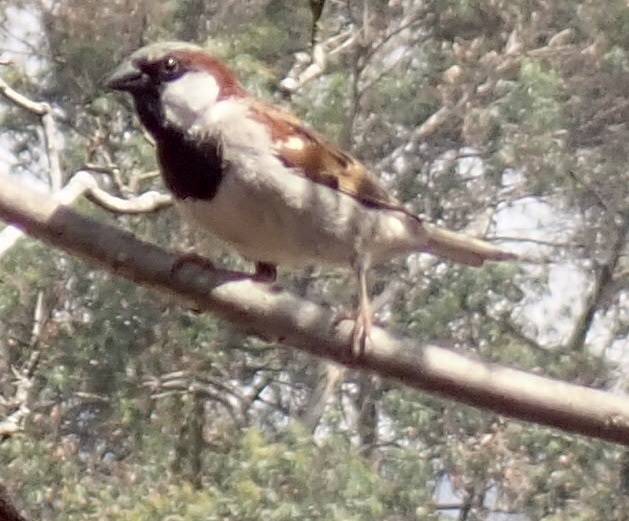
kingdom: Animalia
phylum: Chordata
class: Aves
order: Passeriformes
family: Passeridae
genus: Passer
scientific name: Passer domesticus
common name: House sparrow
